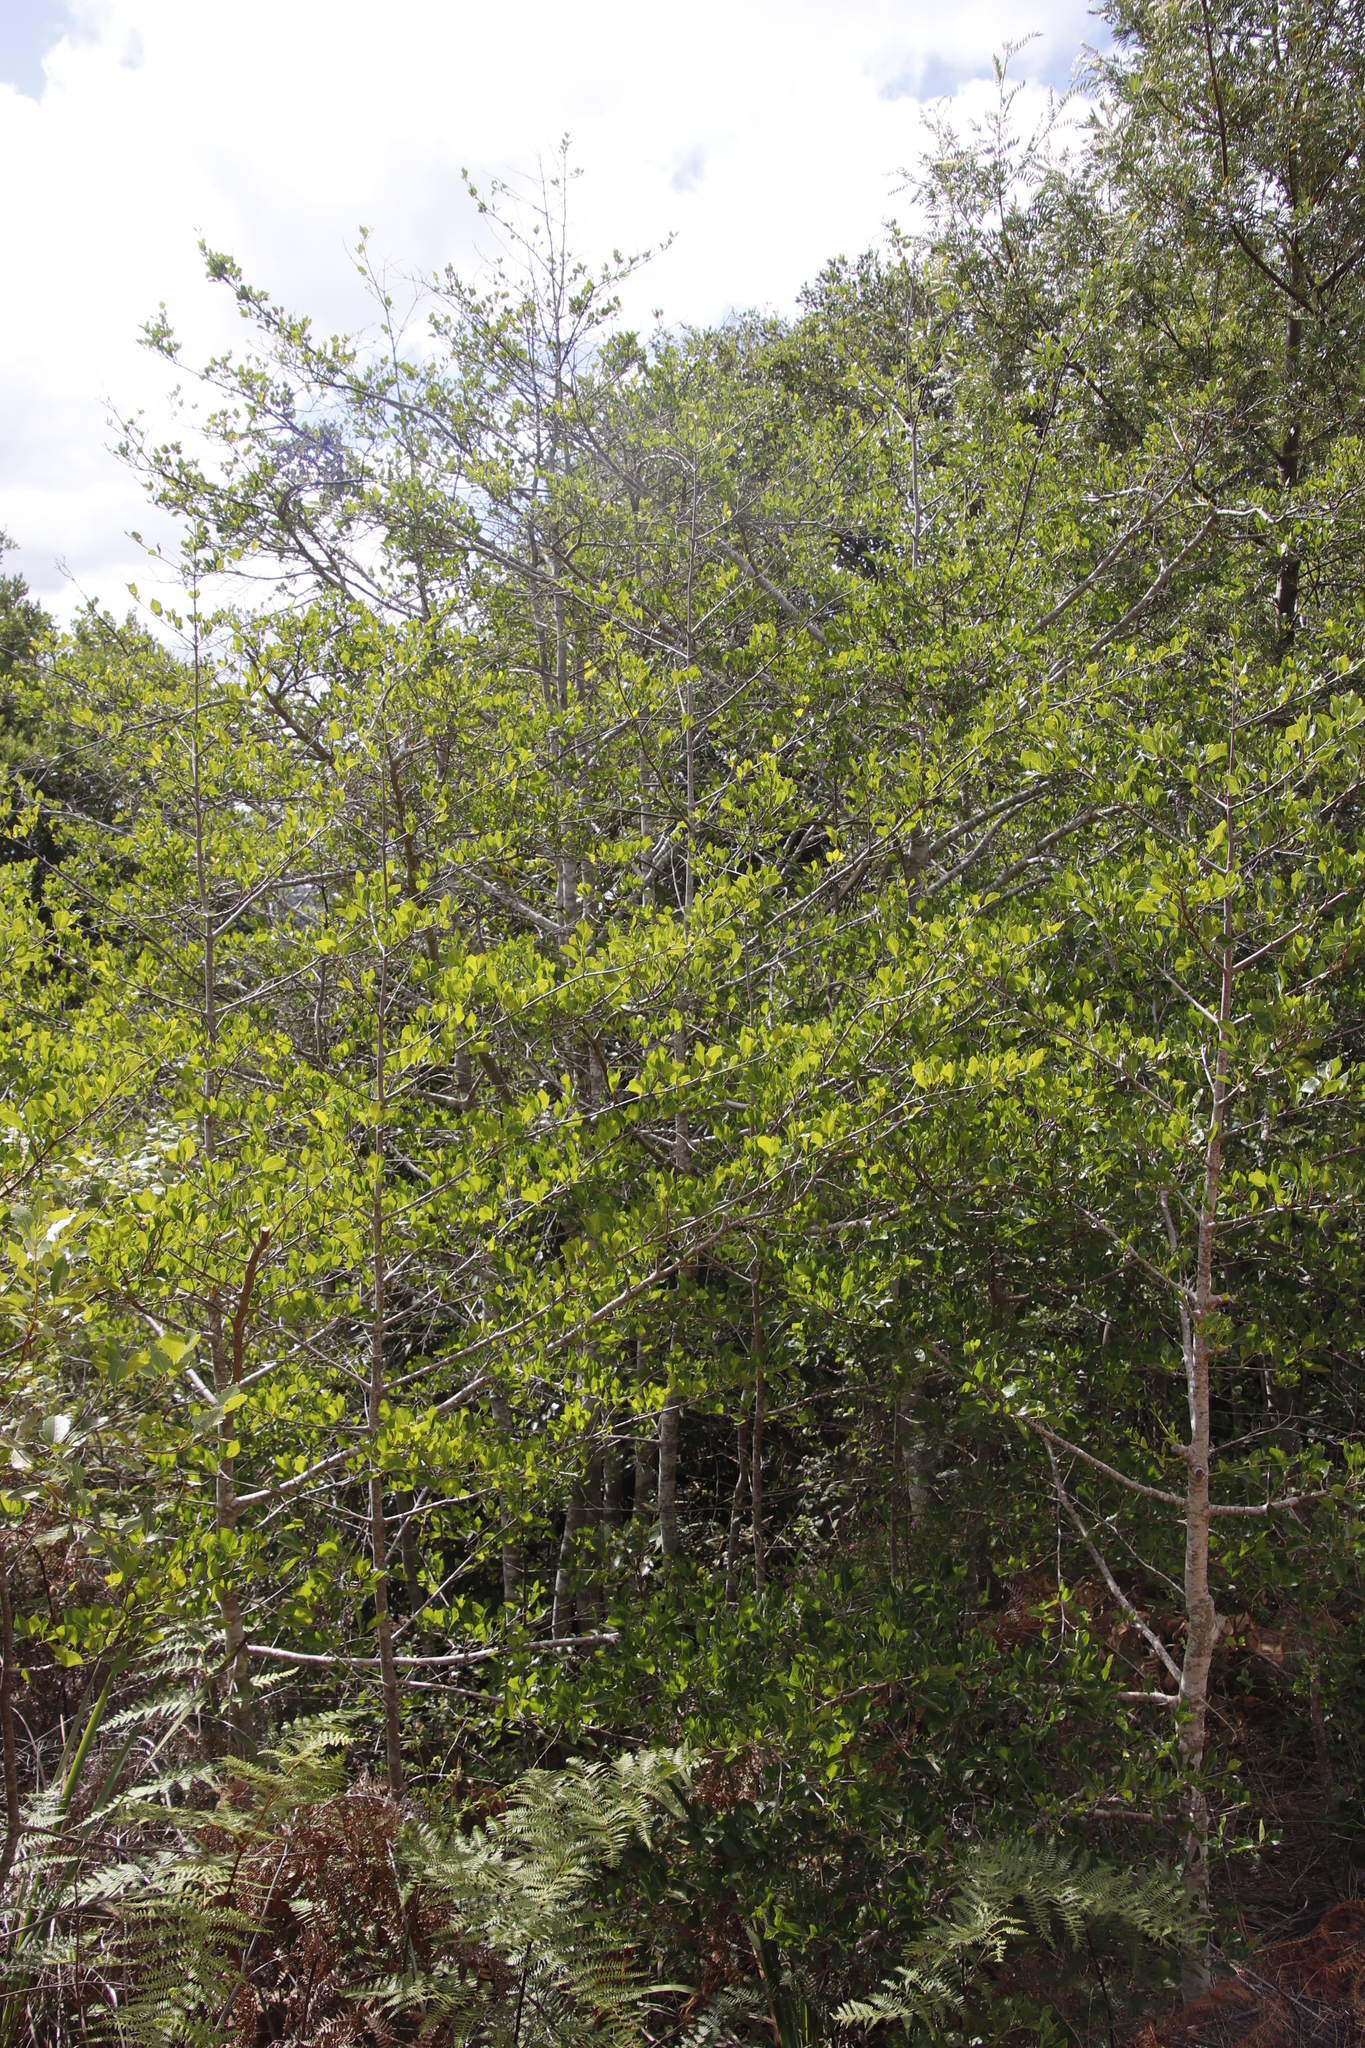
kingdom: Plantae
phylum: Tracheophyta
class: Magnoliopsida
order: Metteniusales
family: Metteniusaceae
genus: Apodytes
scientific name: Apodytes dimidiata
